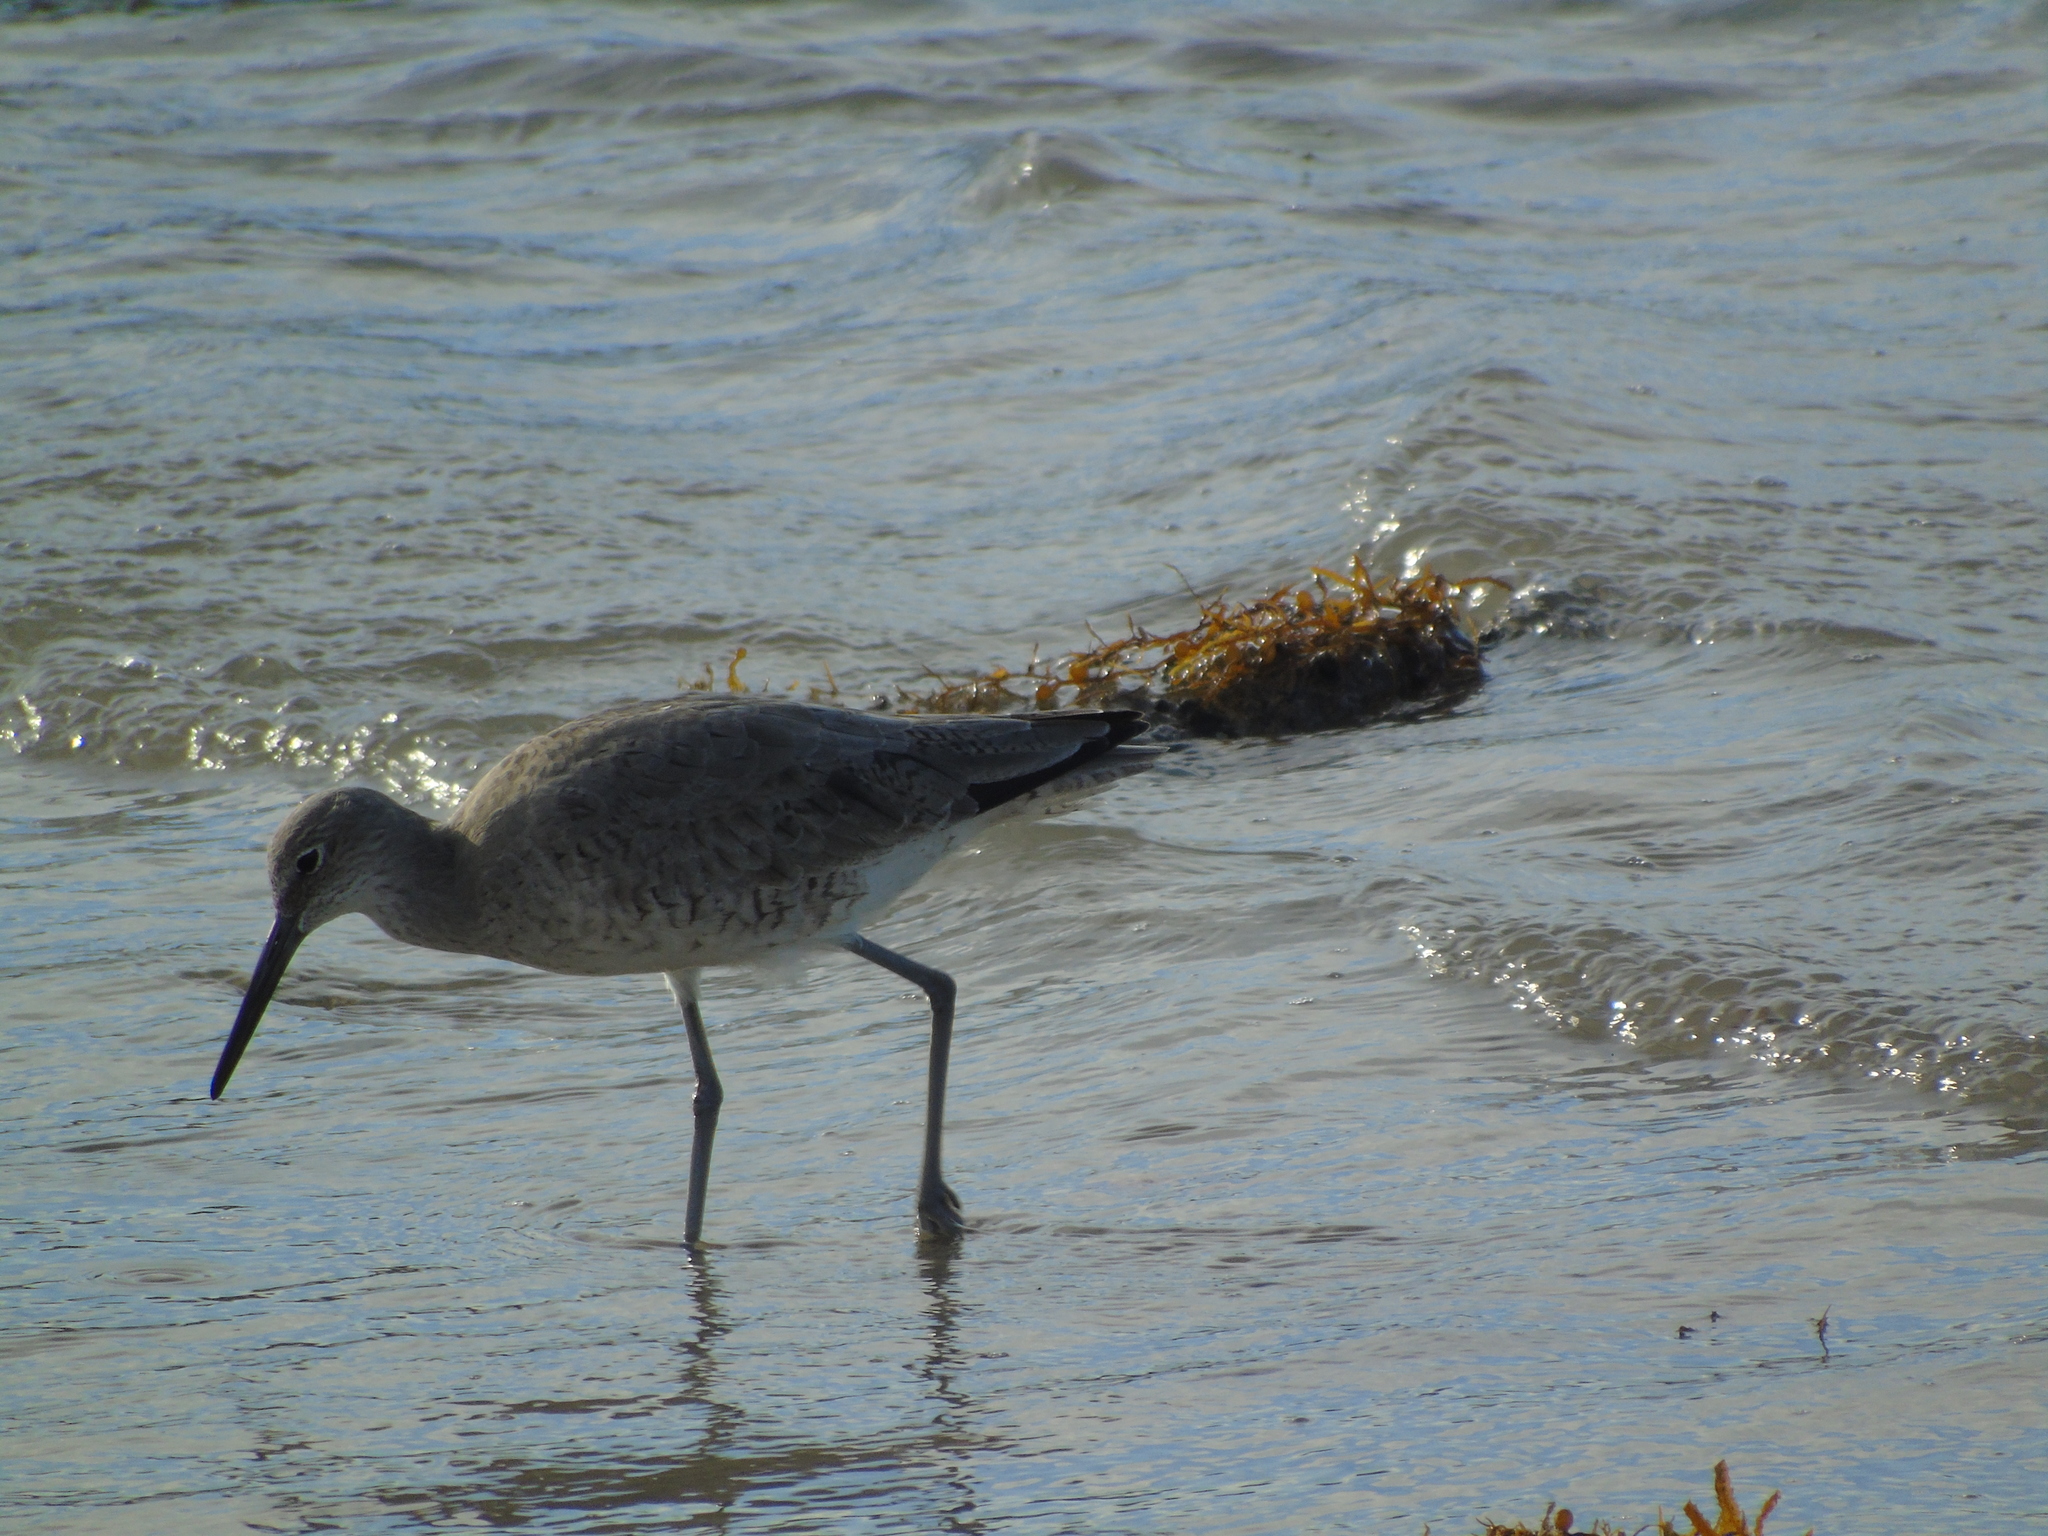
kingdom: Animalia
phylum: Chordata
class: Aves
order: Charadriiformes
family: Scolopacidae
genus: Tringa
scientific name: Tringa semipalmata
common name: Willet
